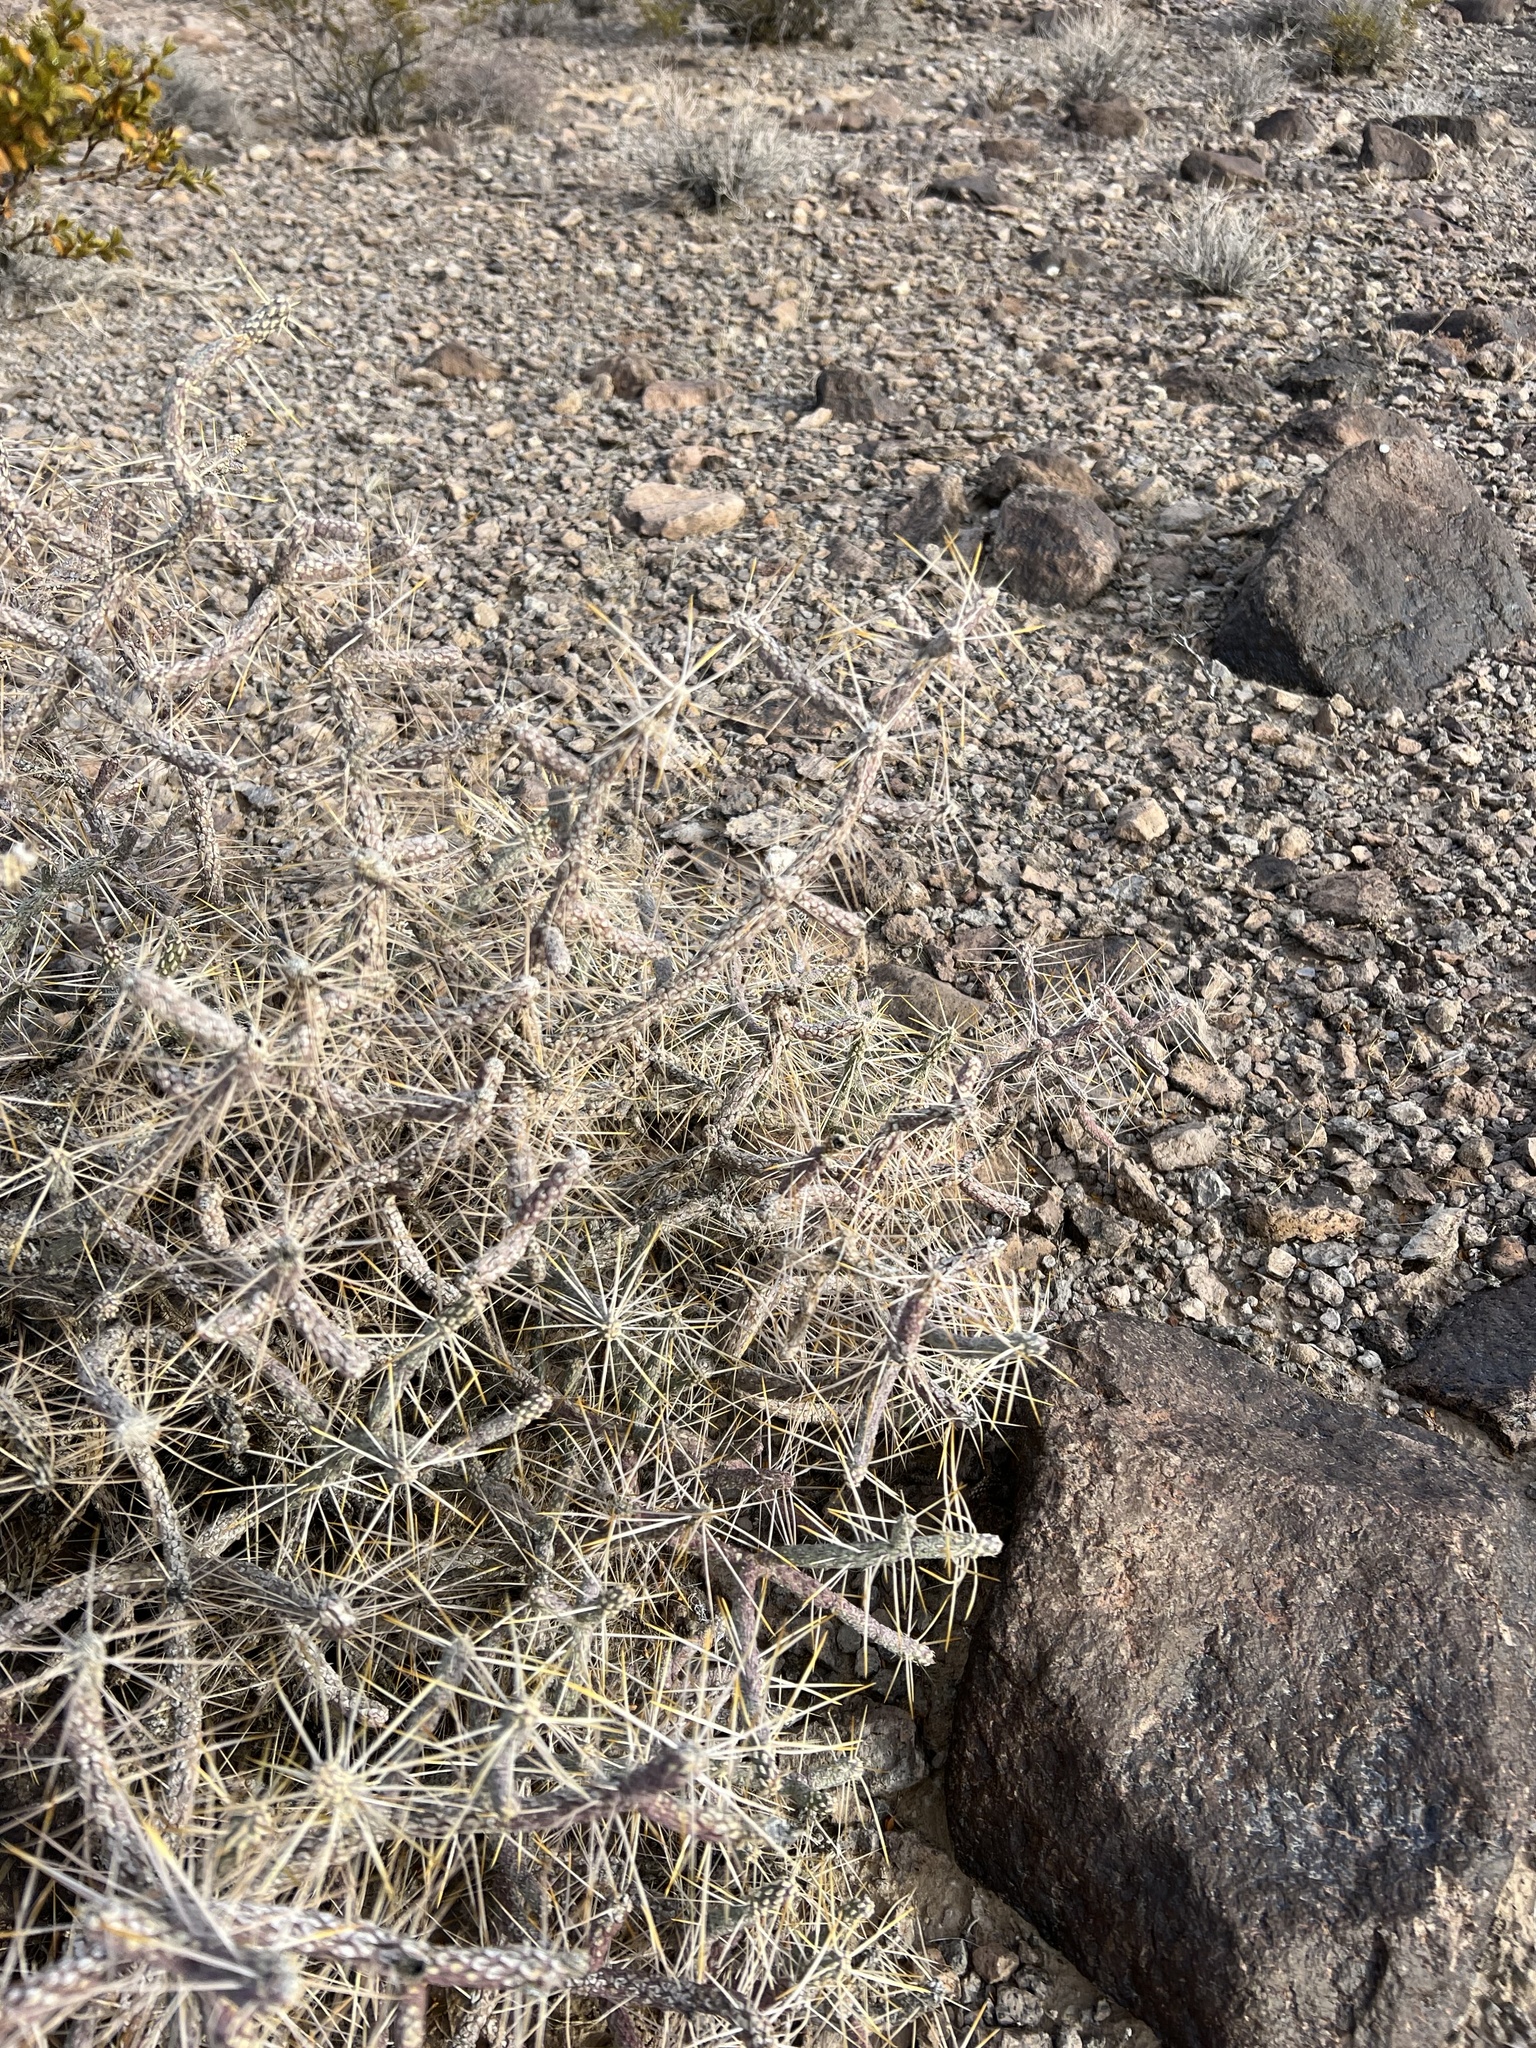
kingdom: Plantae
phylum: Tracheophyta
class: Magnoliopsida
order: Caryophyllales
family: Cactaceae
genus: Cylindropuntia
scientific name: Cylindropuntia ramosissima
